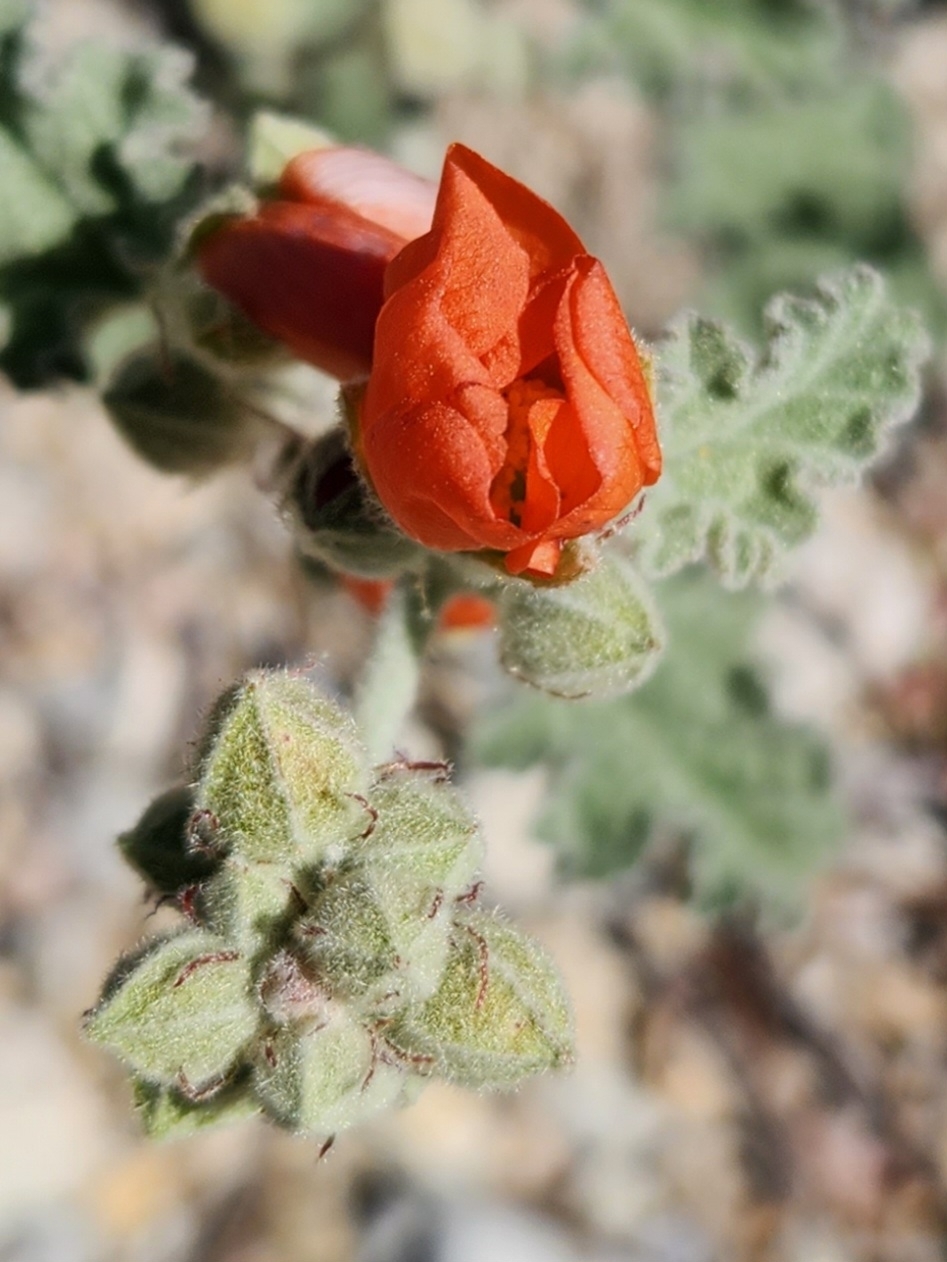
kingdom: Plantae
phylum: Tracheophyta
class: Magnoliopsida
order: Malvales
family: Malvaceae
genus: Sphaeralcea
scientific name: Sphaeralcea ambigua
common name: Apricot globe-mallow
